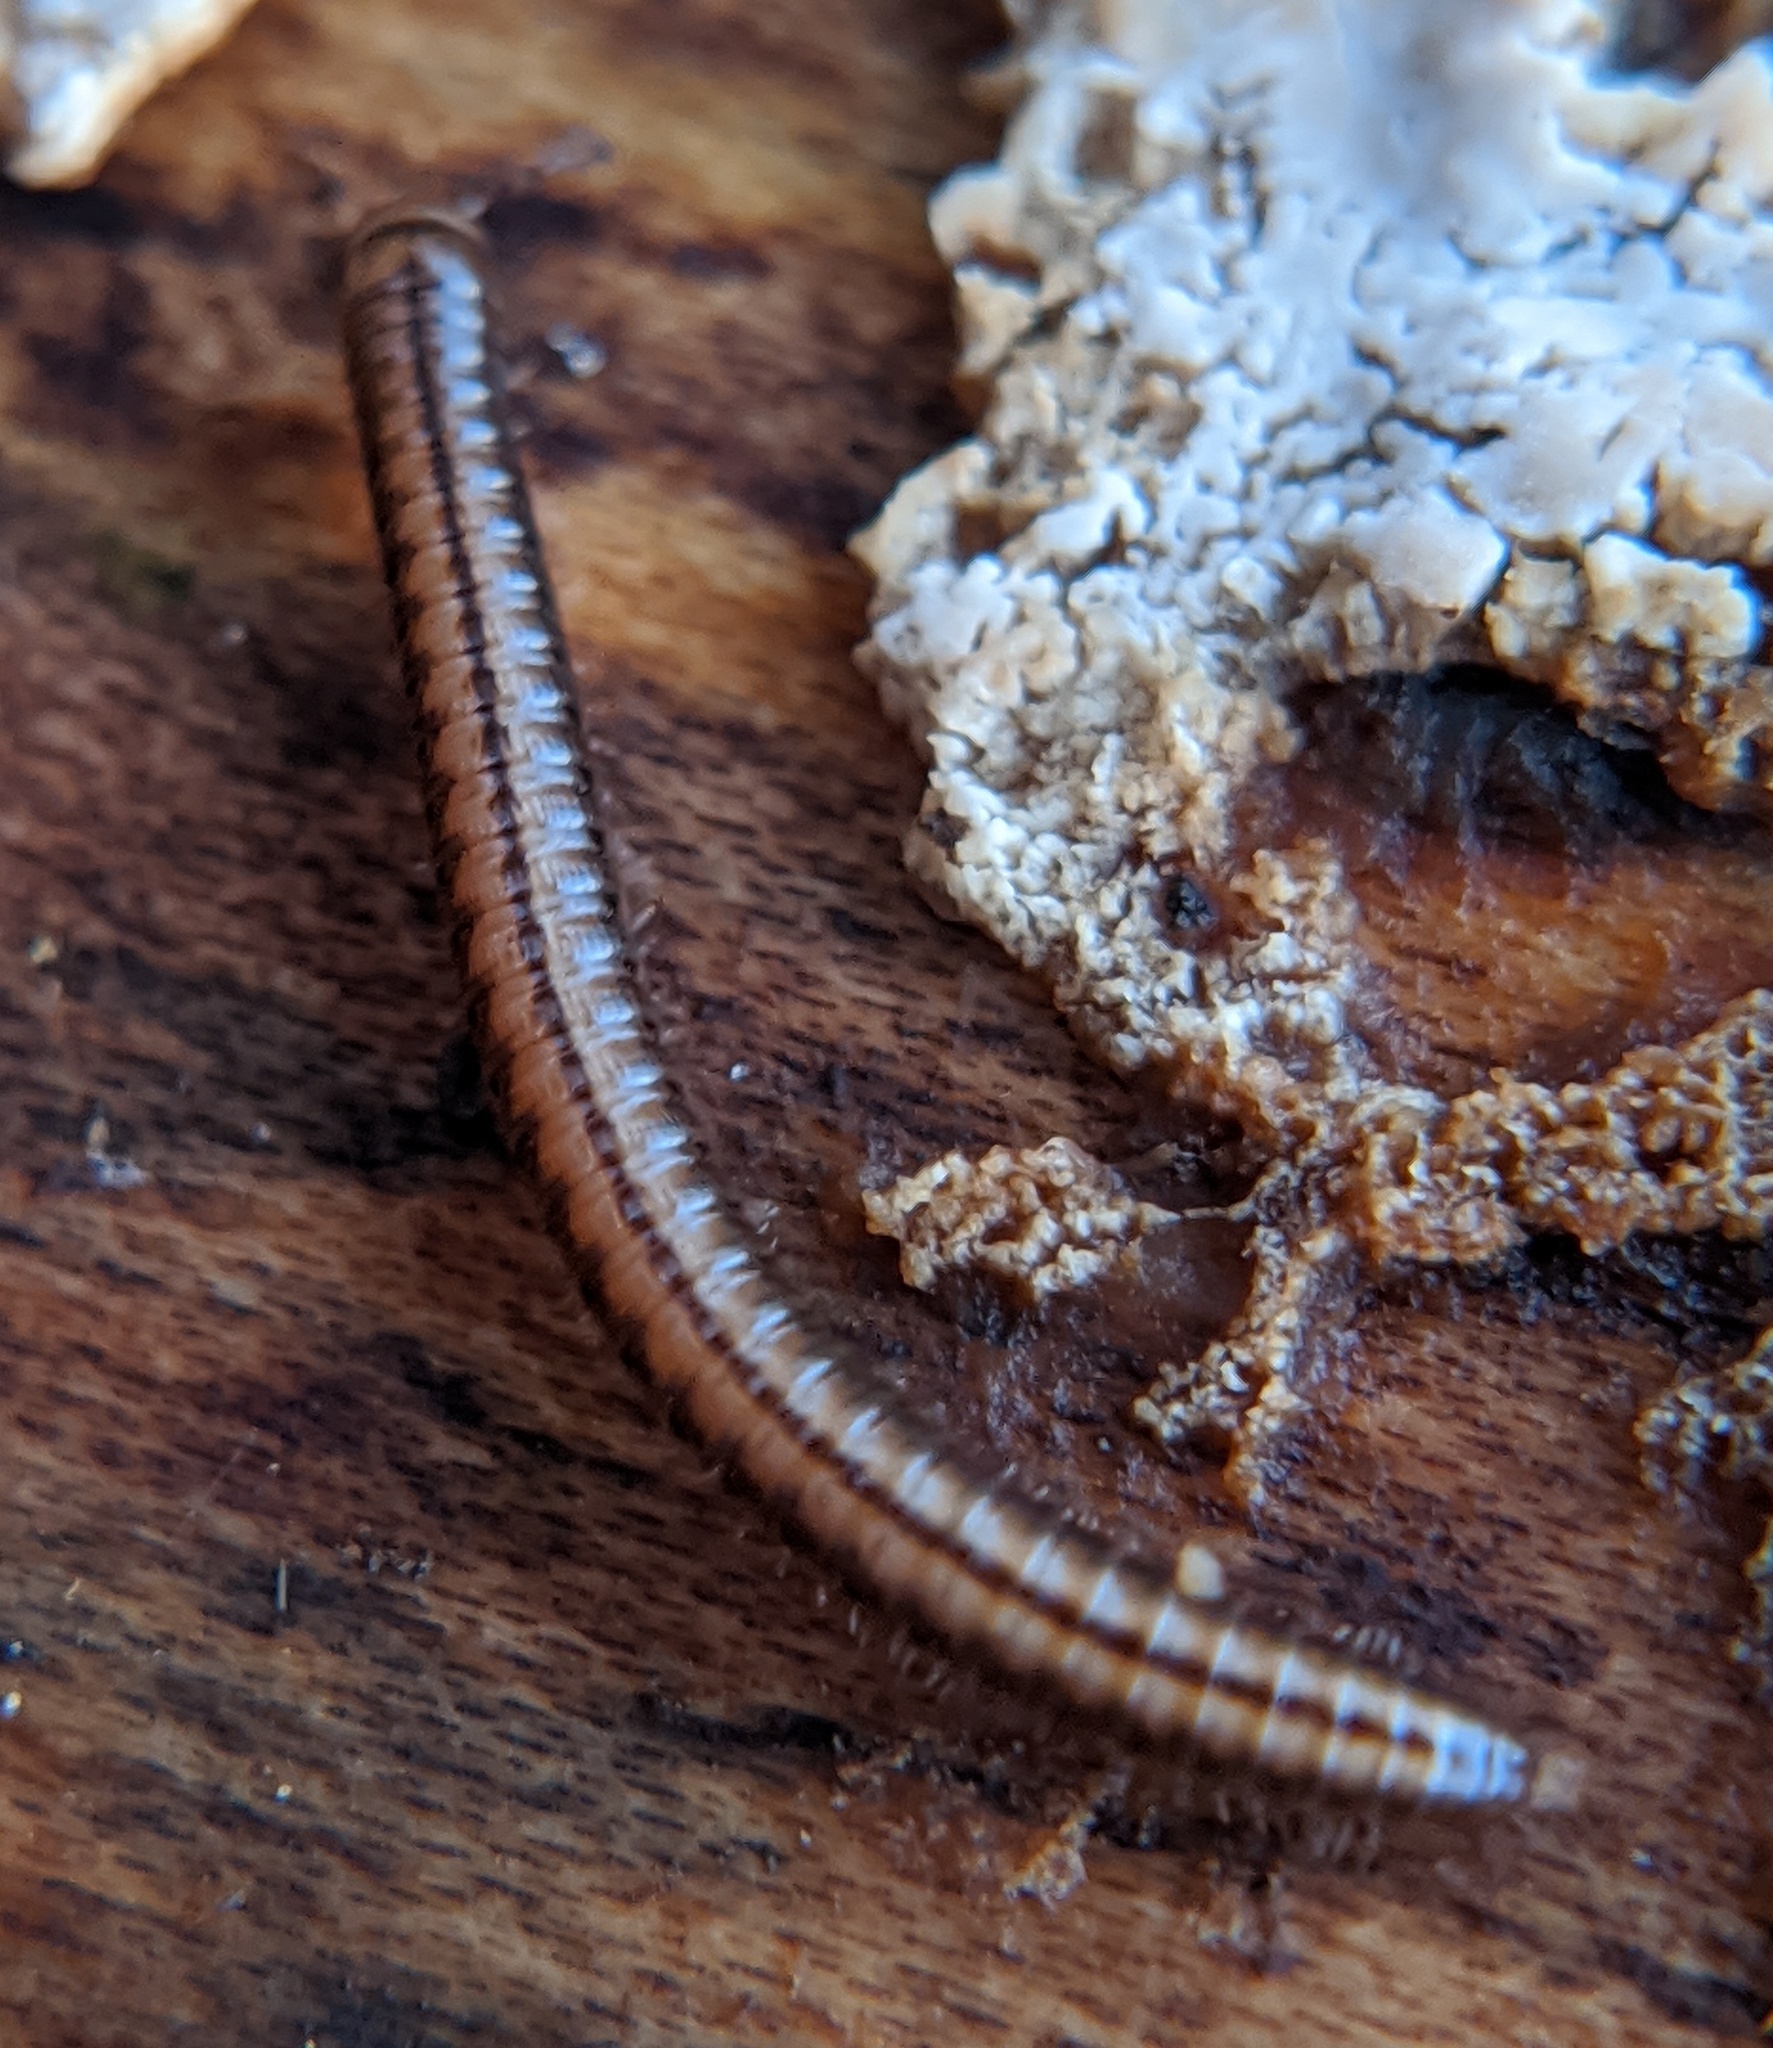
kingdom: Animalia
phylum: Arthropoda
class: Diplopoda
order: Julida
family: Julidae
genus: Brachyiulus
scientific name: Brachyiulus
